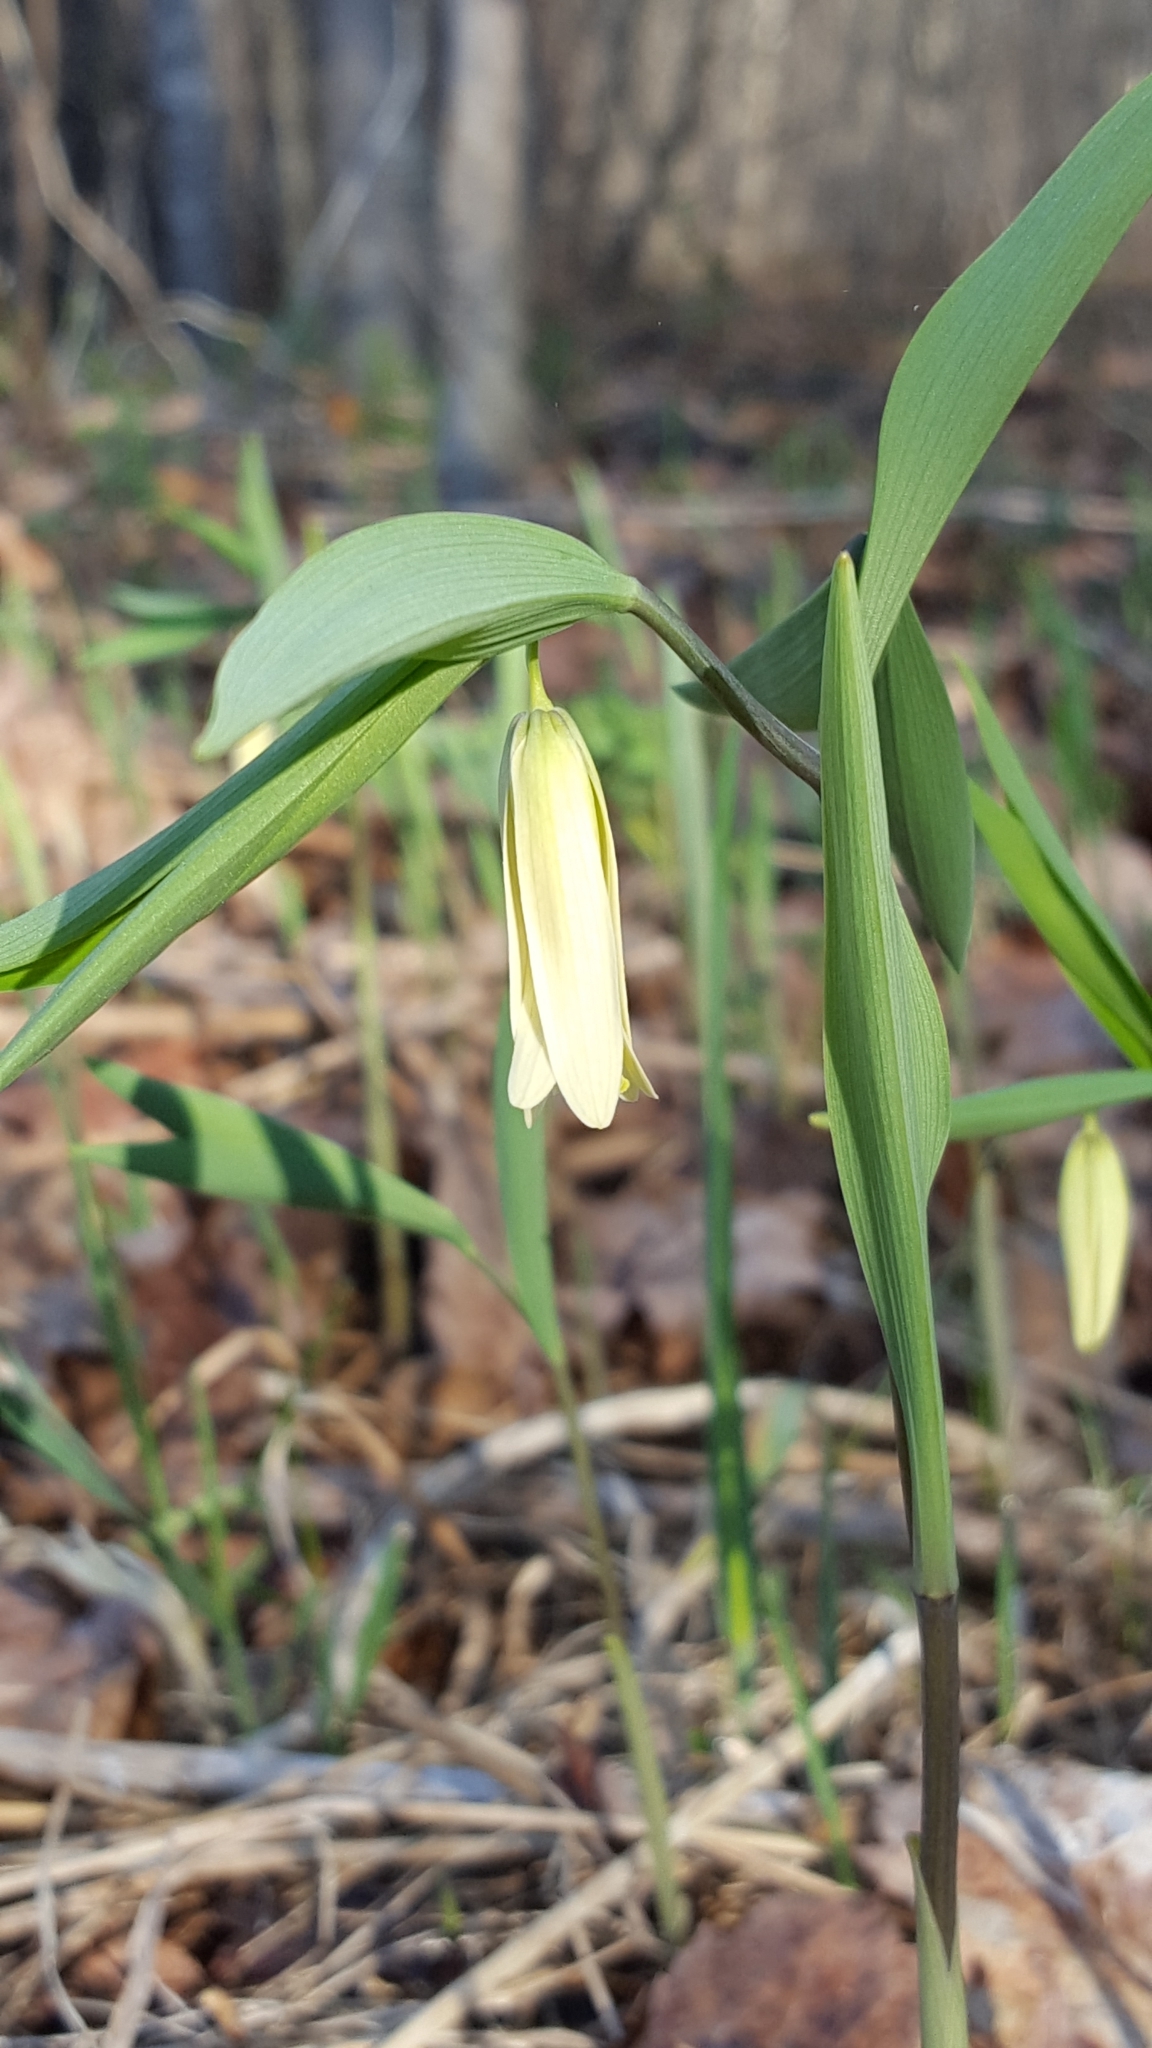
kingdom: Plantae
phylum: Tracheophyta
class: Liliopsida
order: Liliales
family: Colchicaceae
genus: Uvularia
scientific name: Uvularia sessilifolia
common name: Straw-lily
